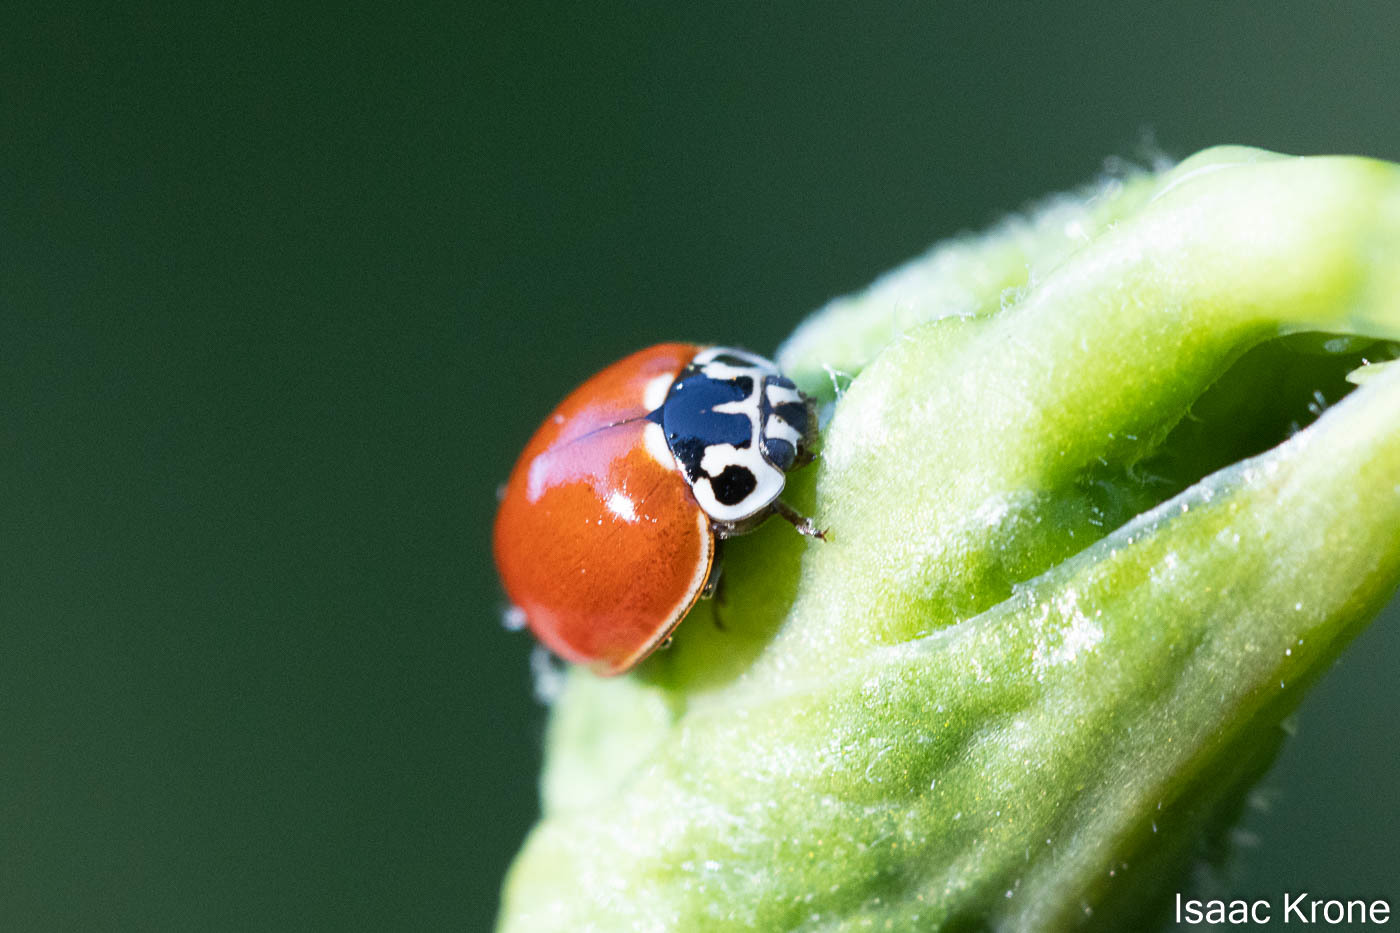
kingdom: Animalia
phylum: Arthropoda
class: Insecta
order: Coleoptera
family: Coccinellidae
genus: Cycloneda
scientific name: Cycloneda polita
